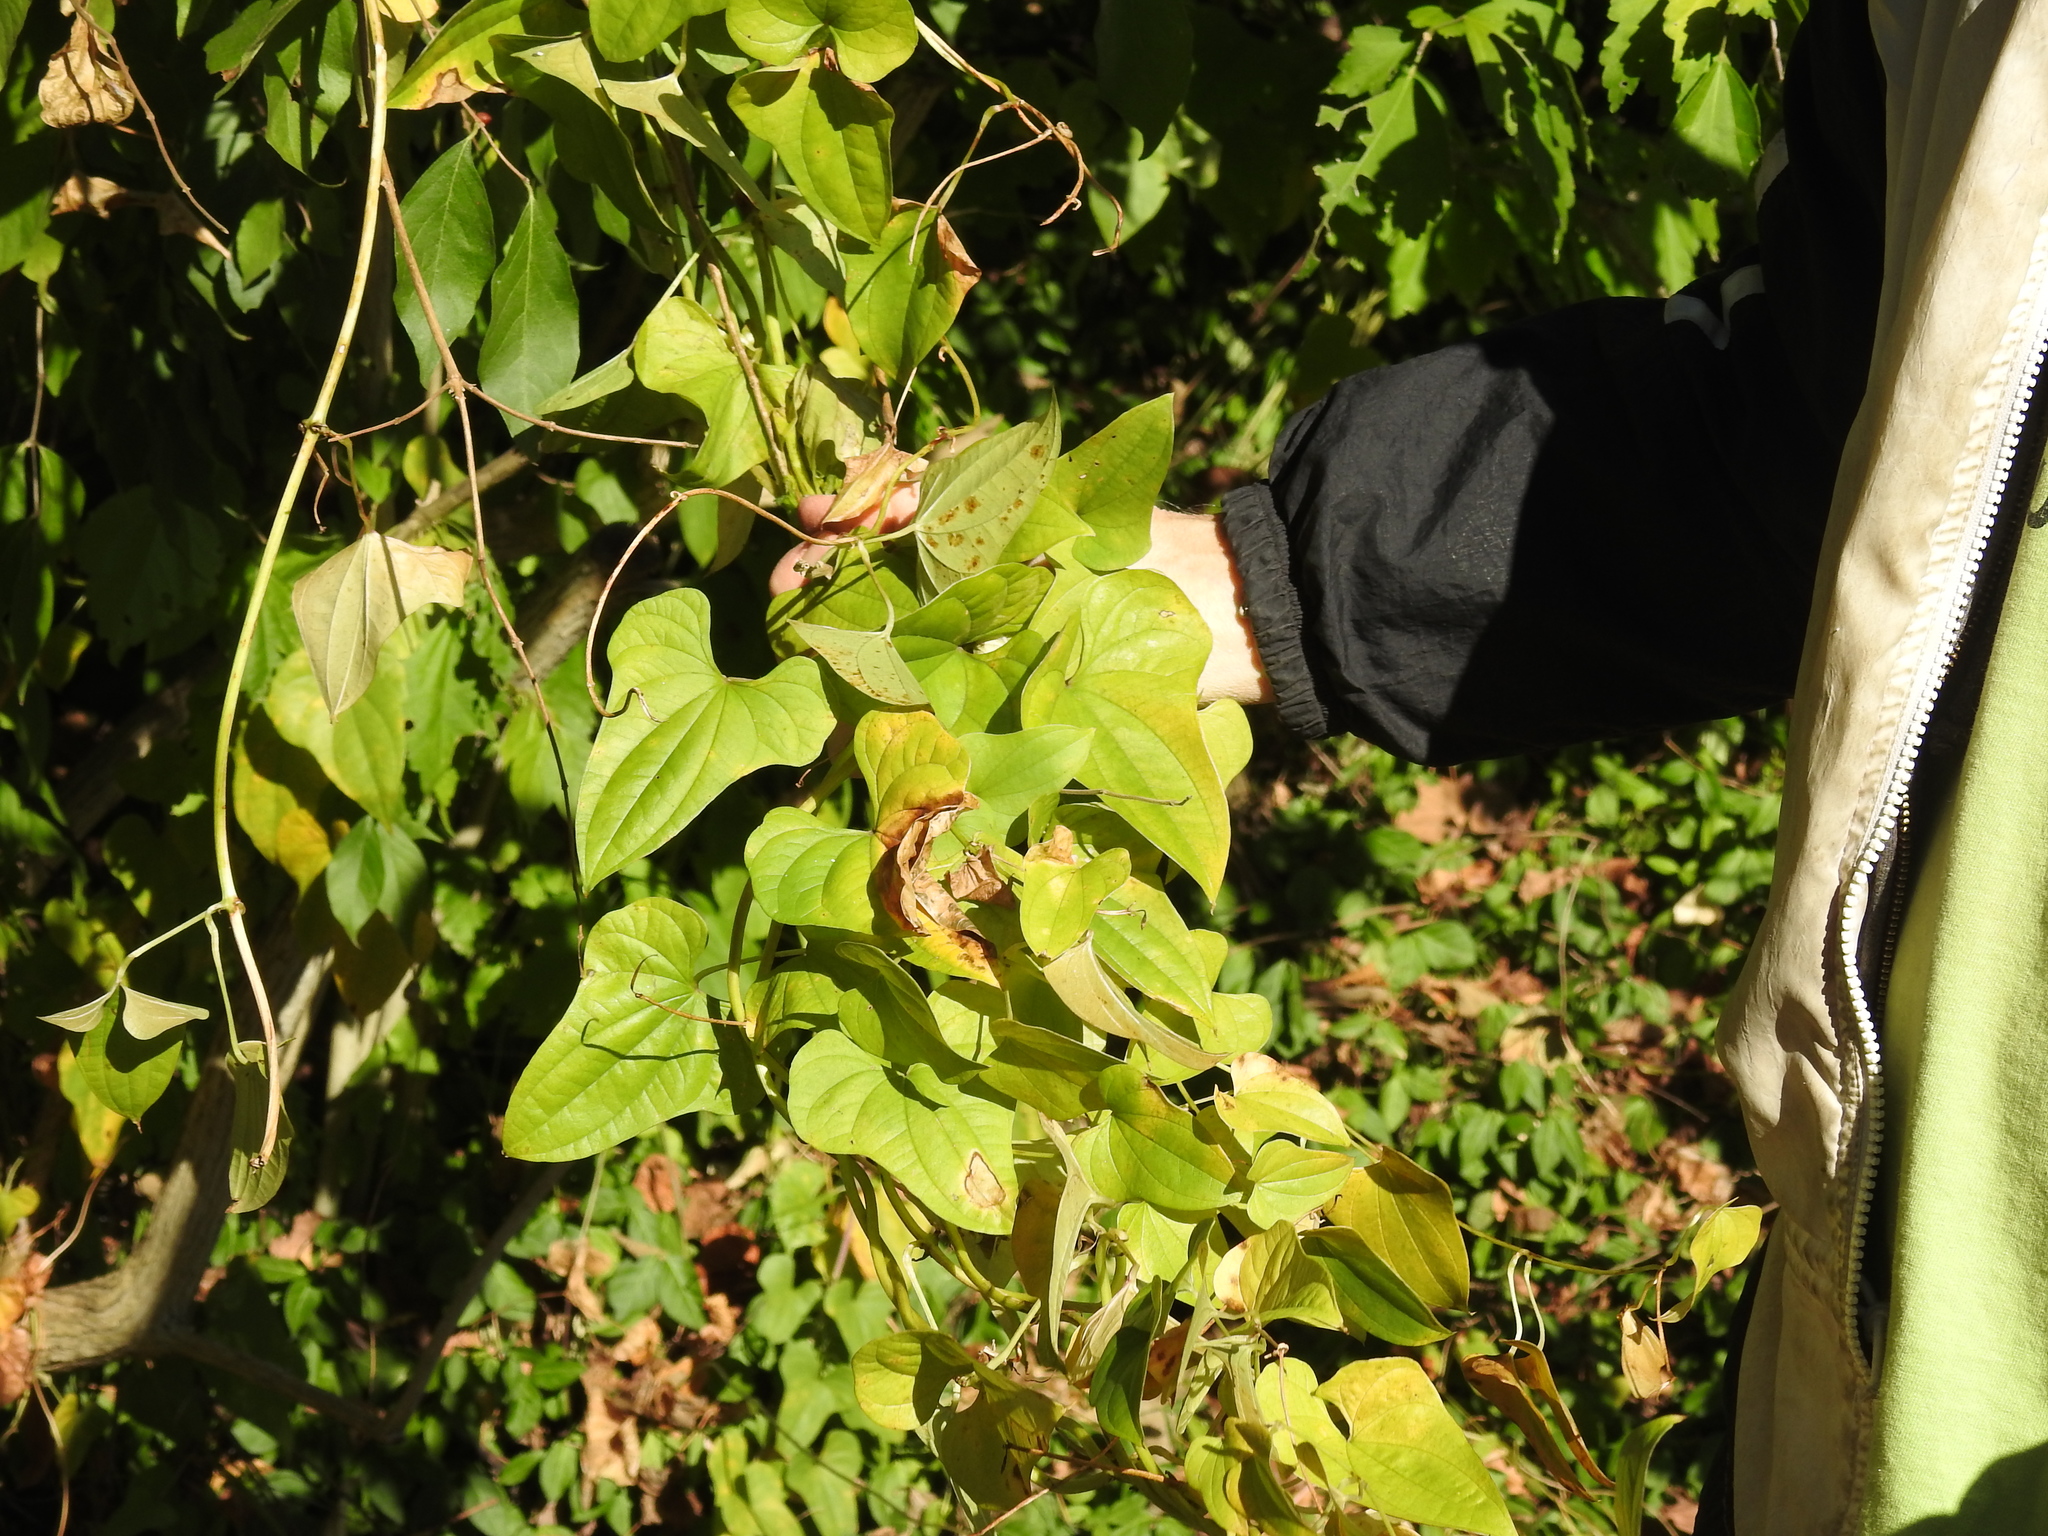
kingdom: Plantae
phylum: Tracheophyta
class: Liliopsida
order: Dioscoreales
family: Dioscoreaceae
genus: Dioscorea
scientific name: Dioscorea polystachya
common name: Chinese yam
